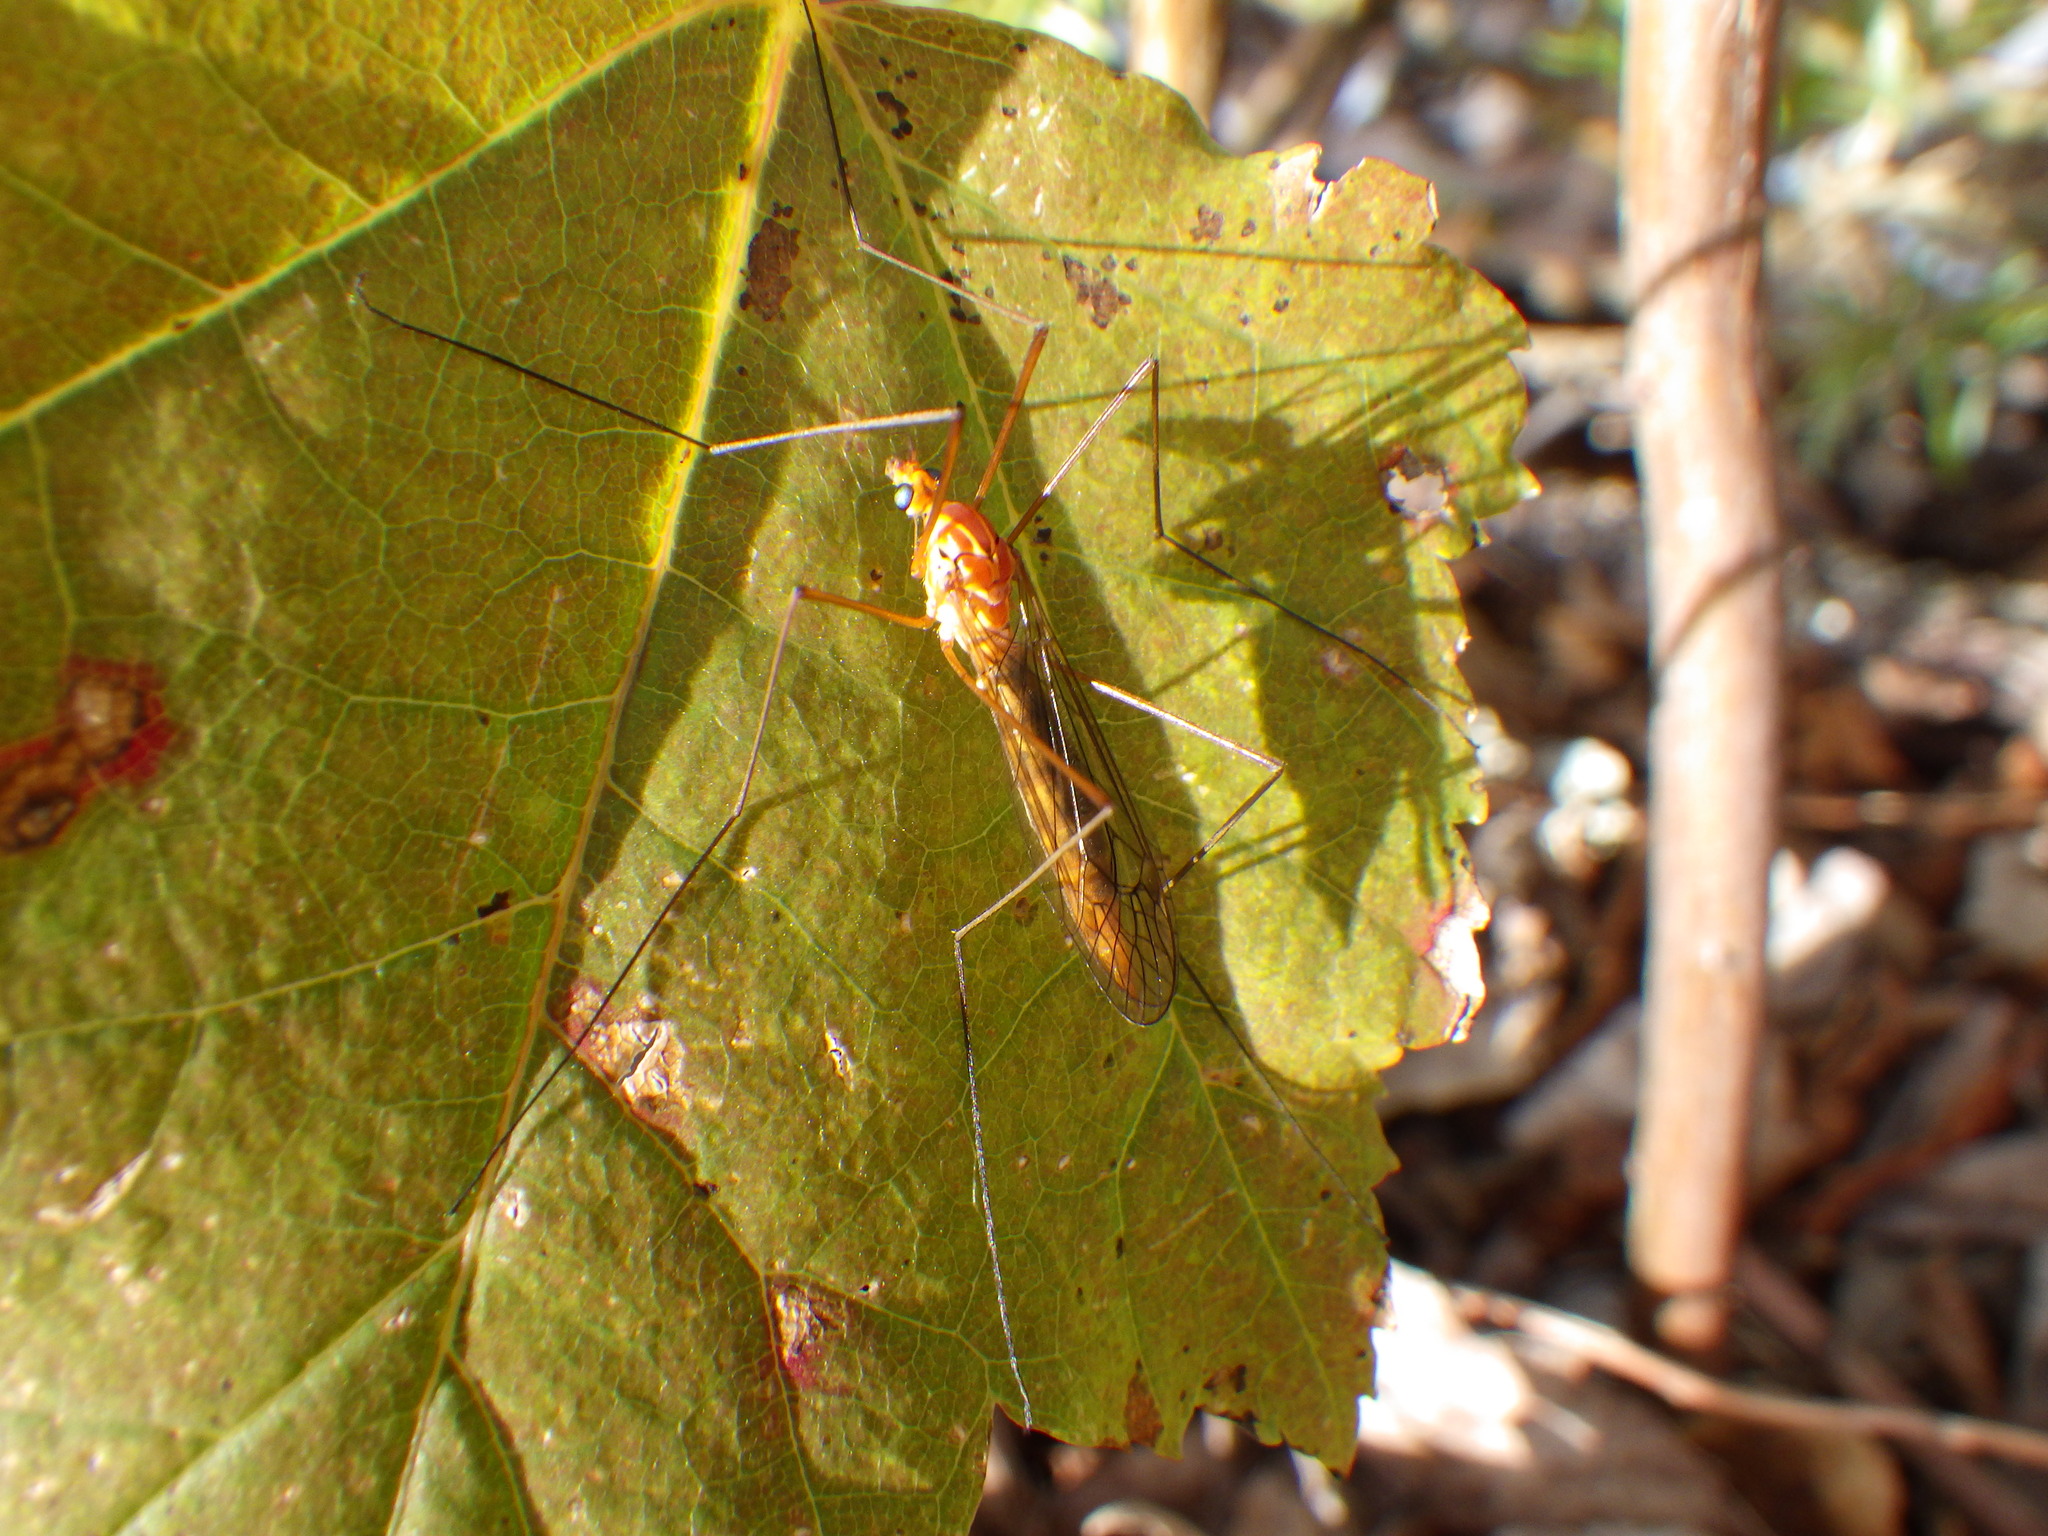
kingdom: Animalia
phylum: Arthropoda
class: Insecta
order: Diptera
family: Tipulidae
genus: Nephrotoma
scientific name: Nephrotoma ferruginea
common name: Ferruginous tiger crane fly
